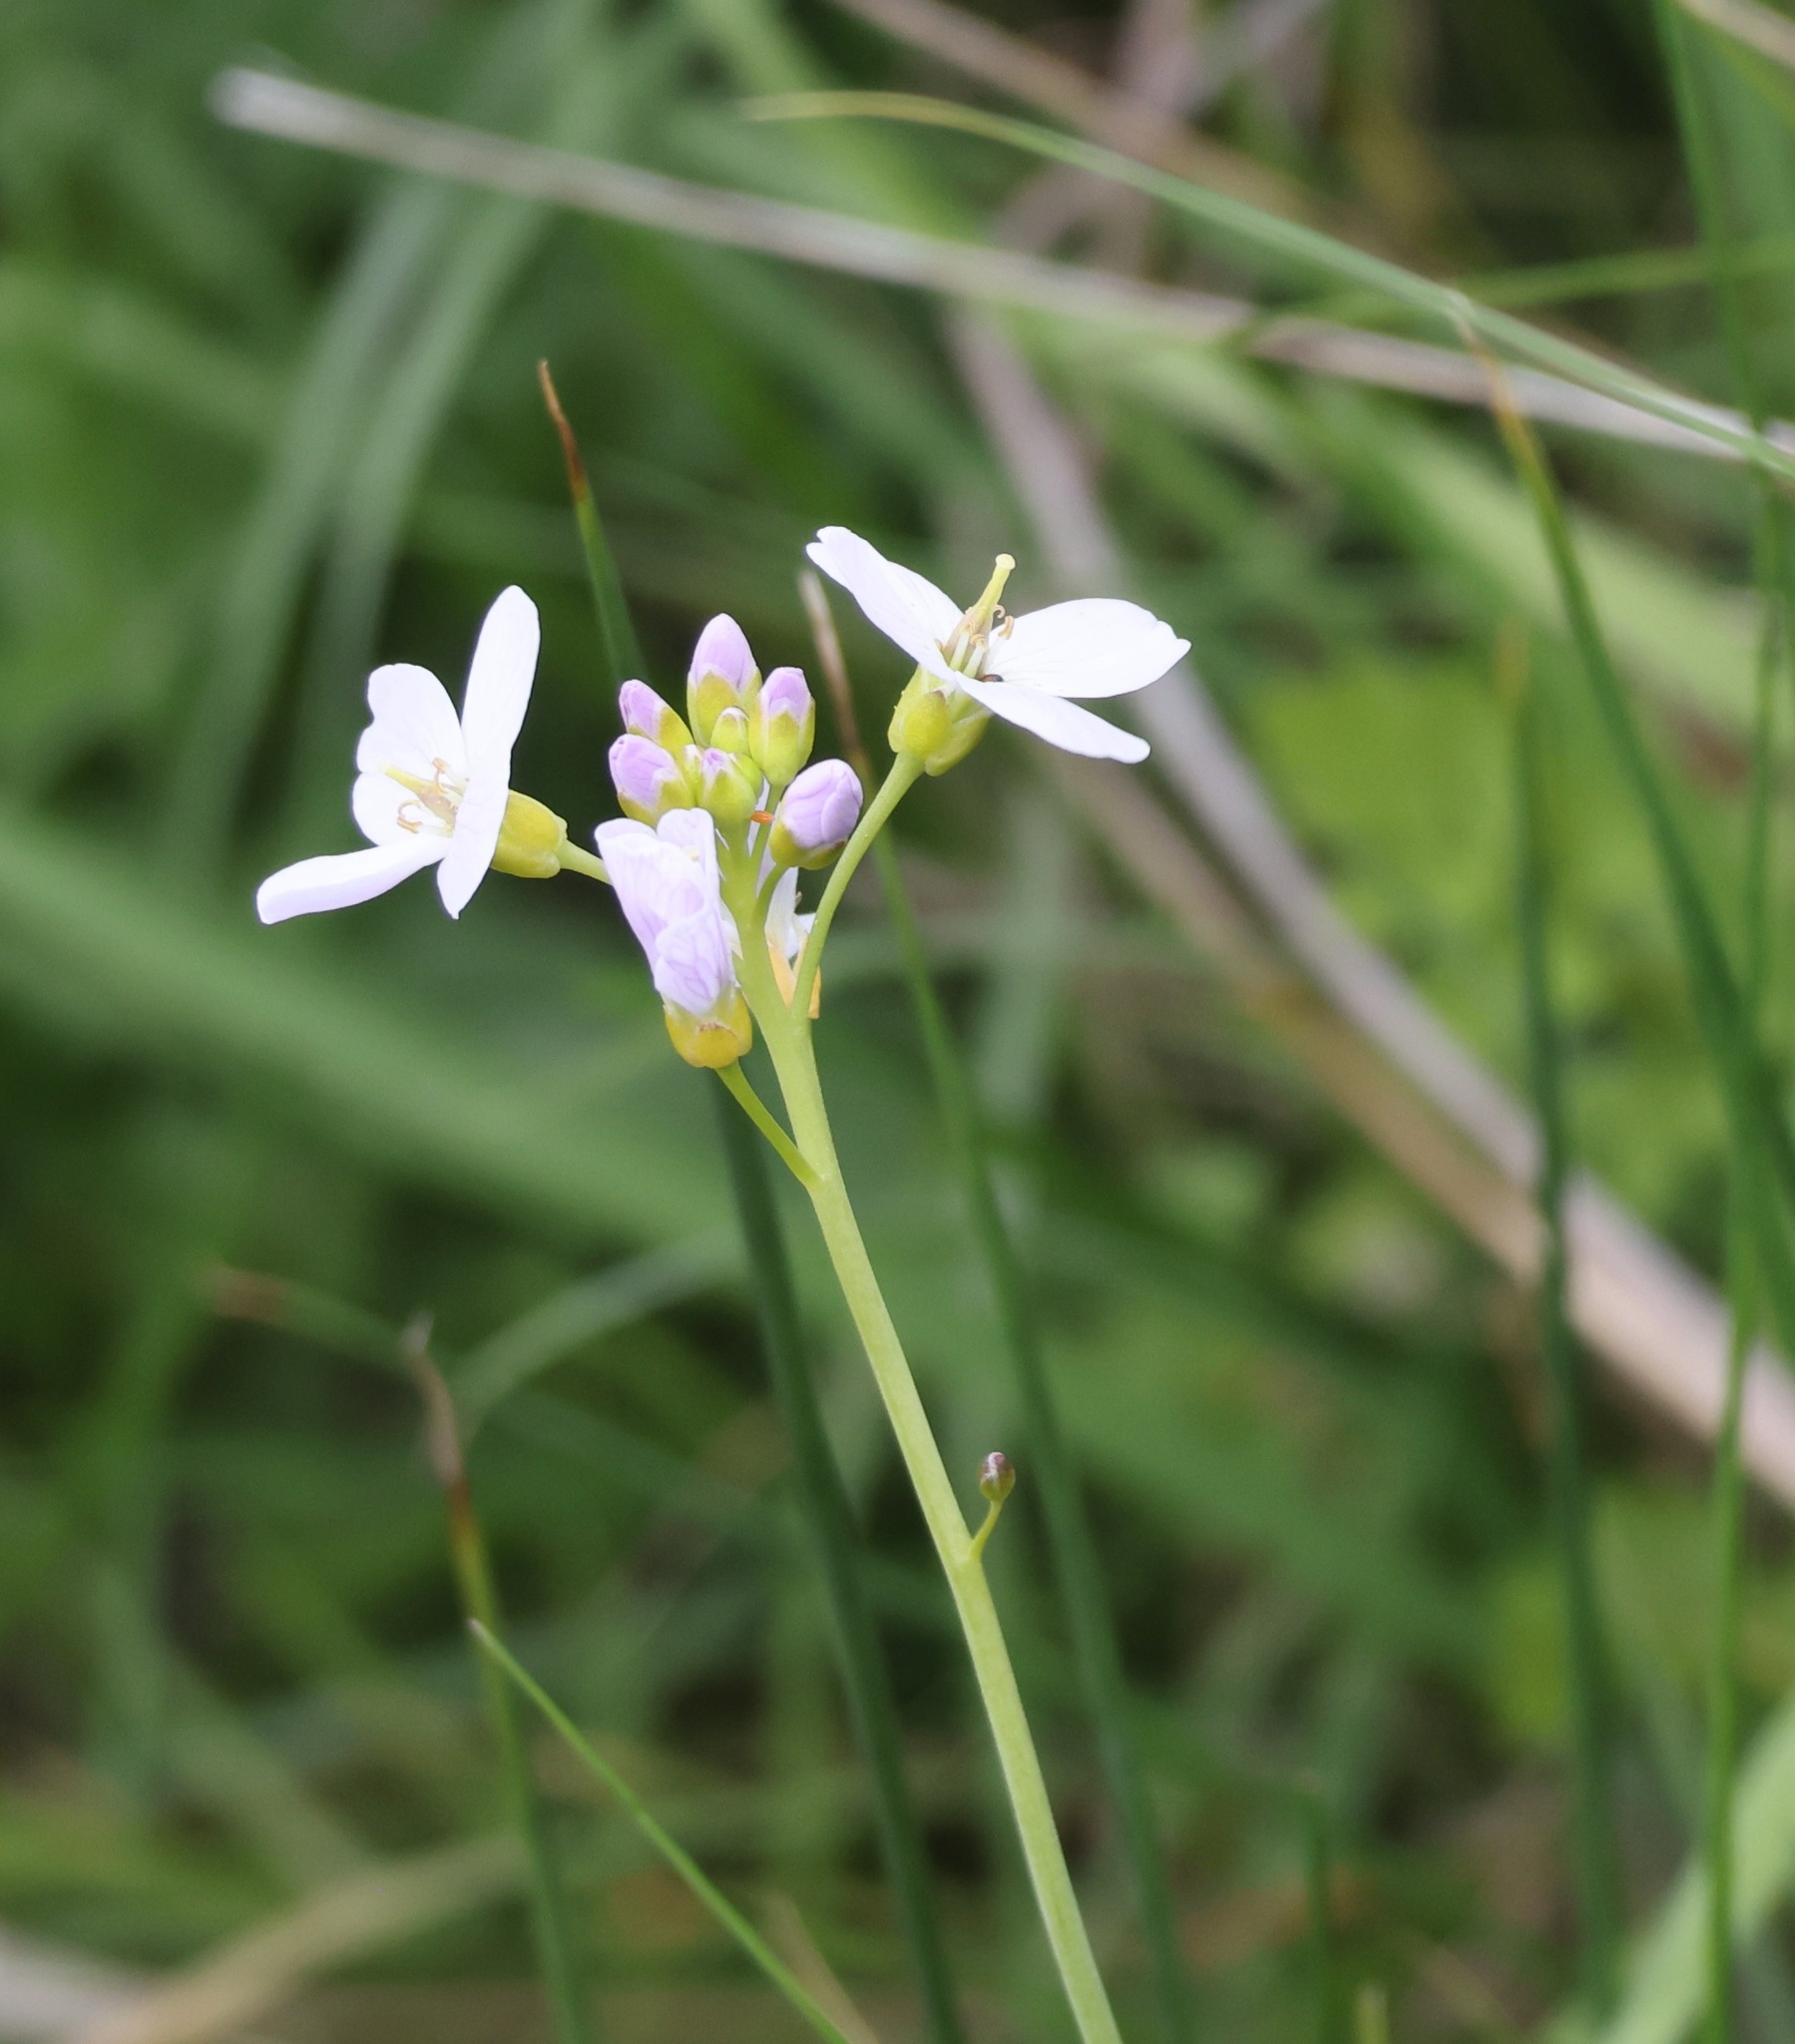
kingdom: Plantae
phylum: Tracheophyta
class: Magnoliopsida
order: Brassicales
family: Brassicaceae
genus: Cardamine
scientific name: Cardamine pratensis
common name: Cuckoo flower
